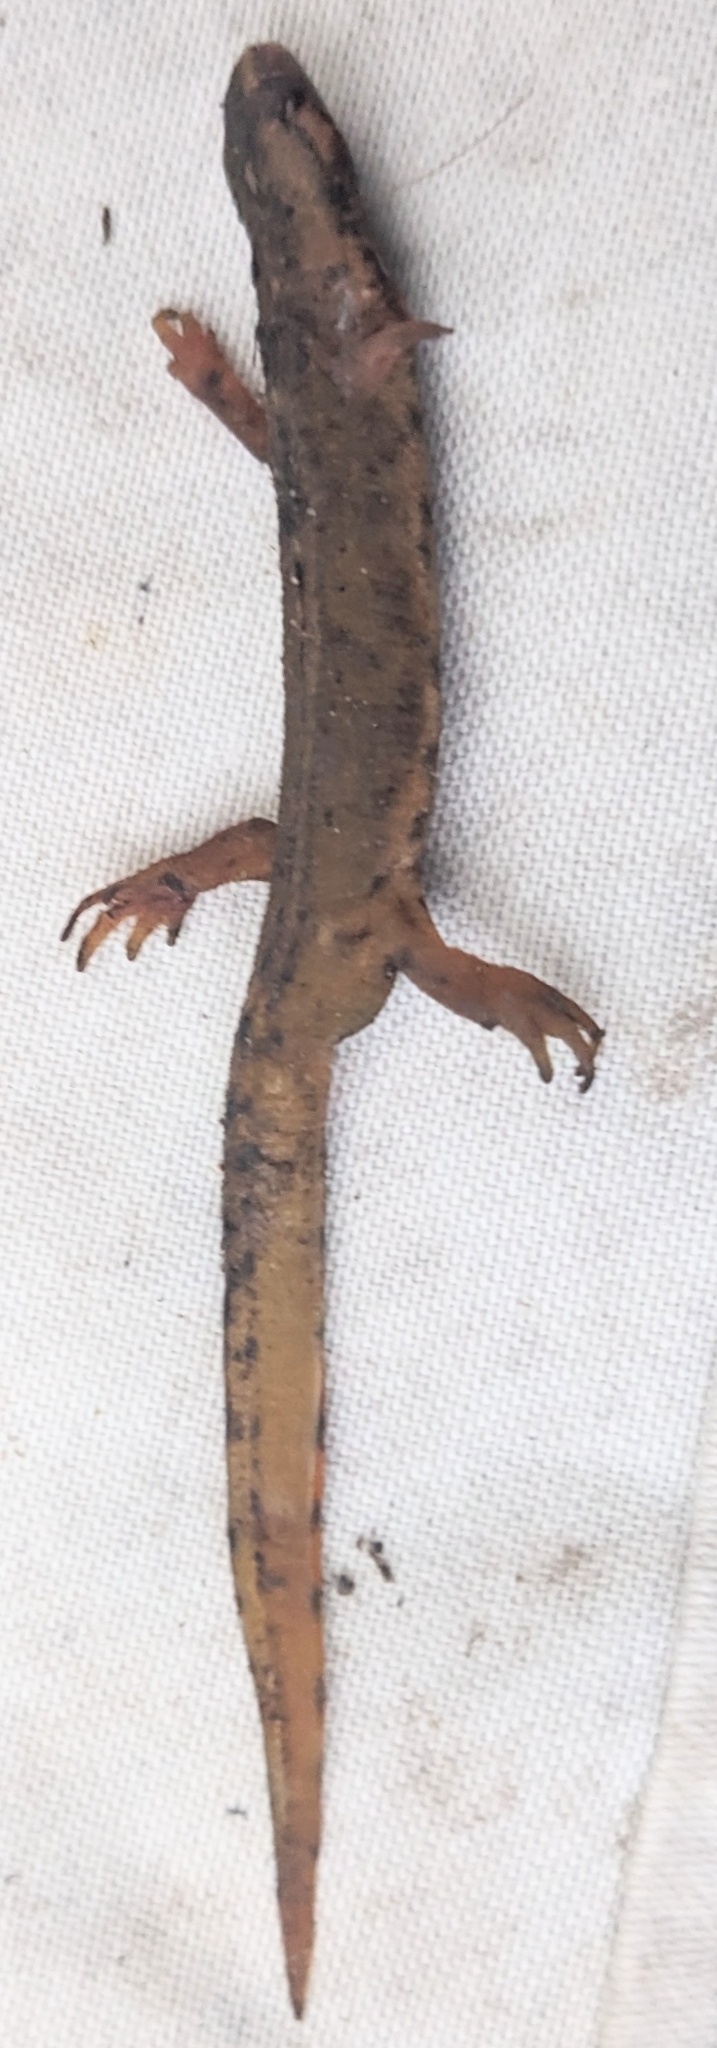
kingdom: Animalia
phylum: Chordata
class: Amphibia
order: Caudata
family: Salamandridae
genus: Lissotriton
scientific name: Lissotriton vulgaris
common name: Smooth newt
